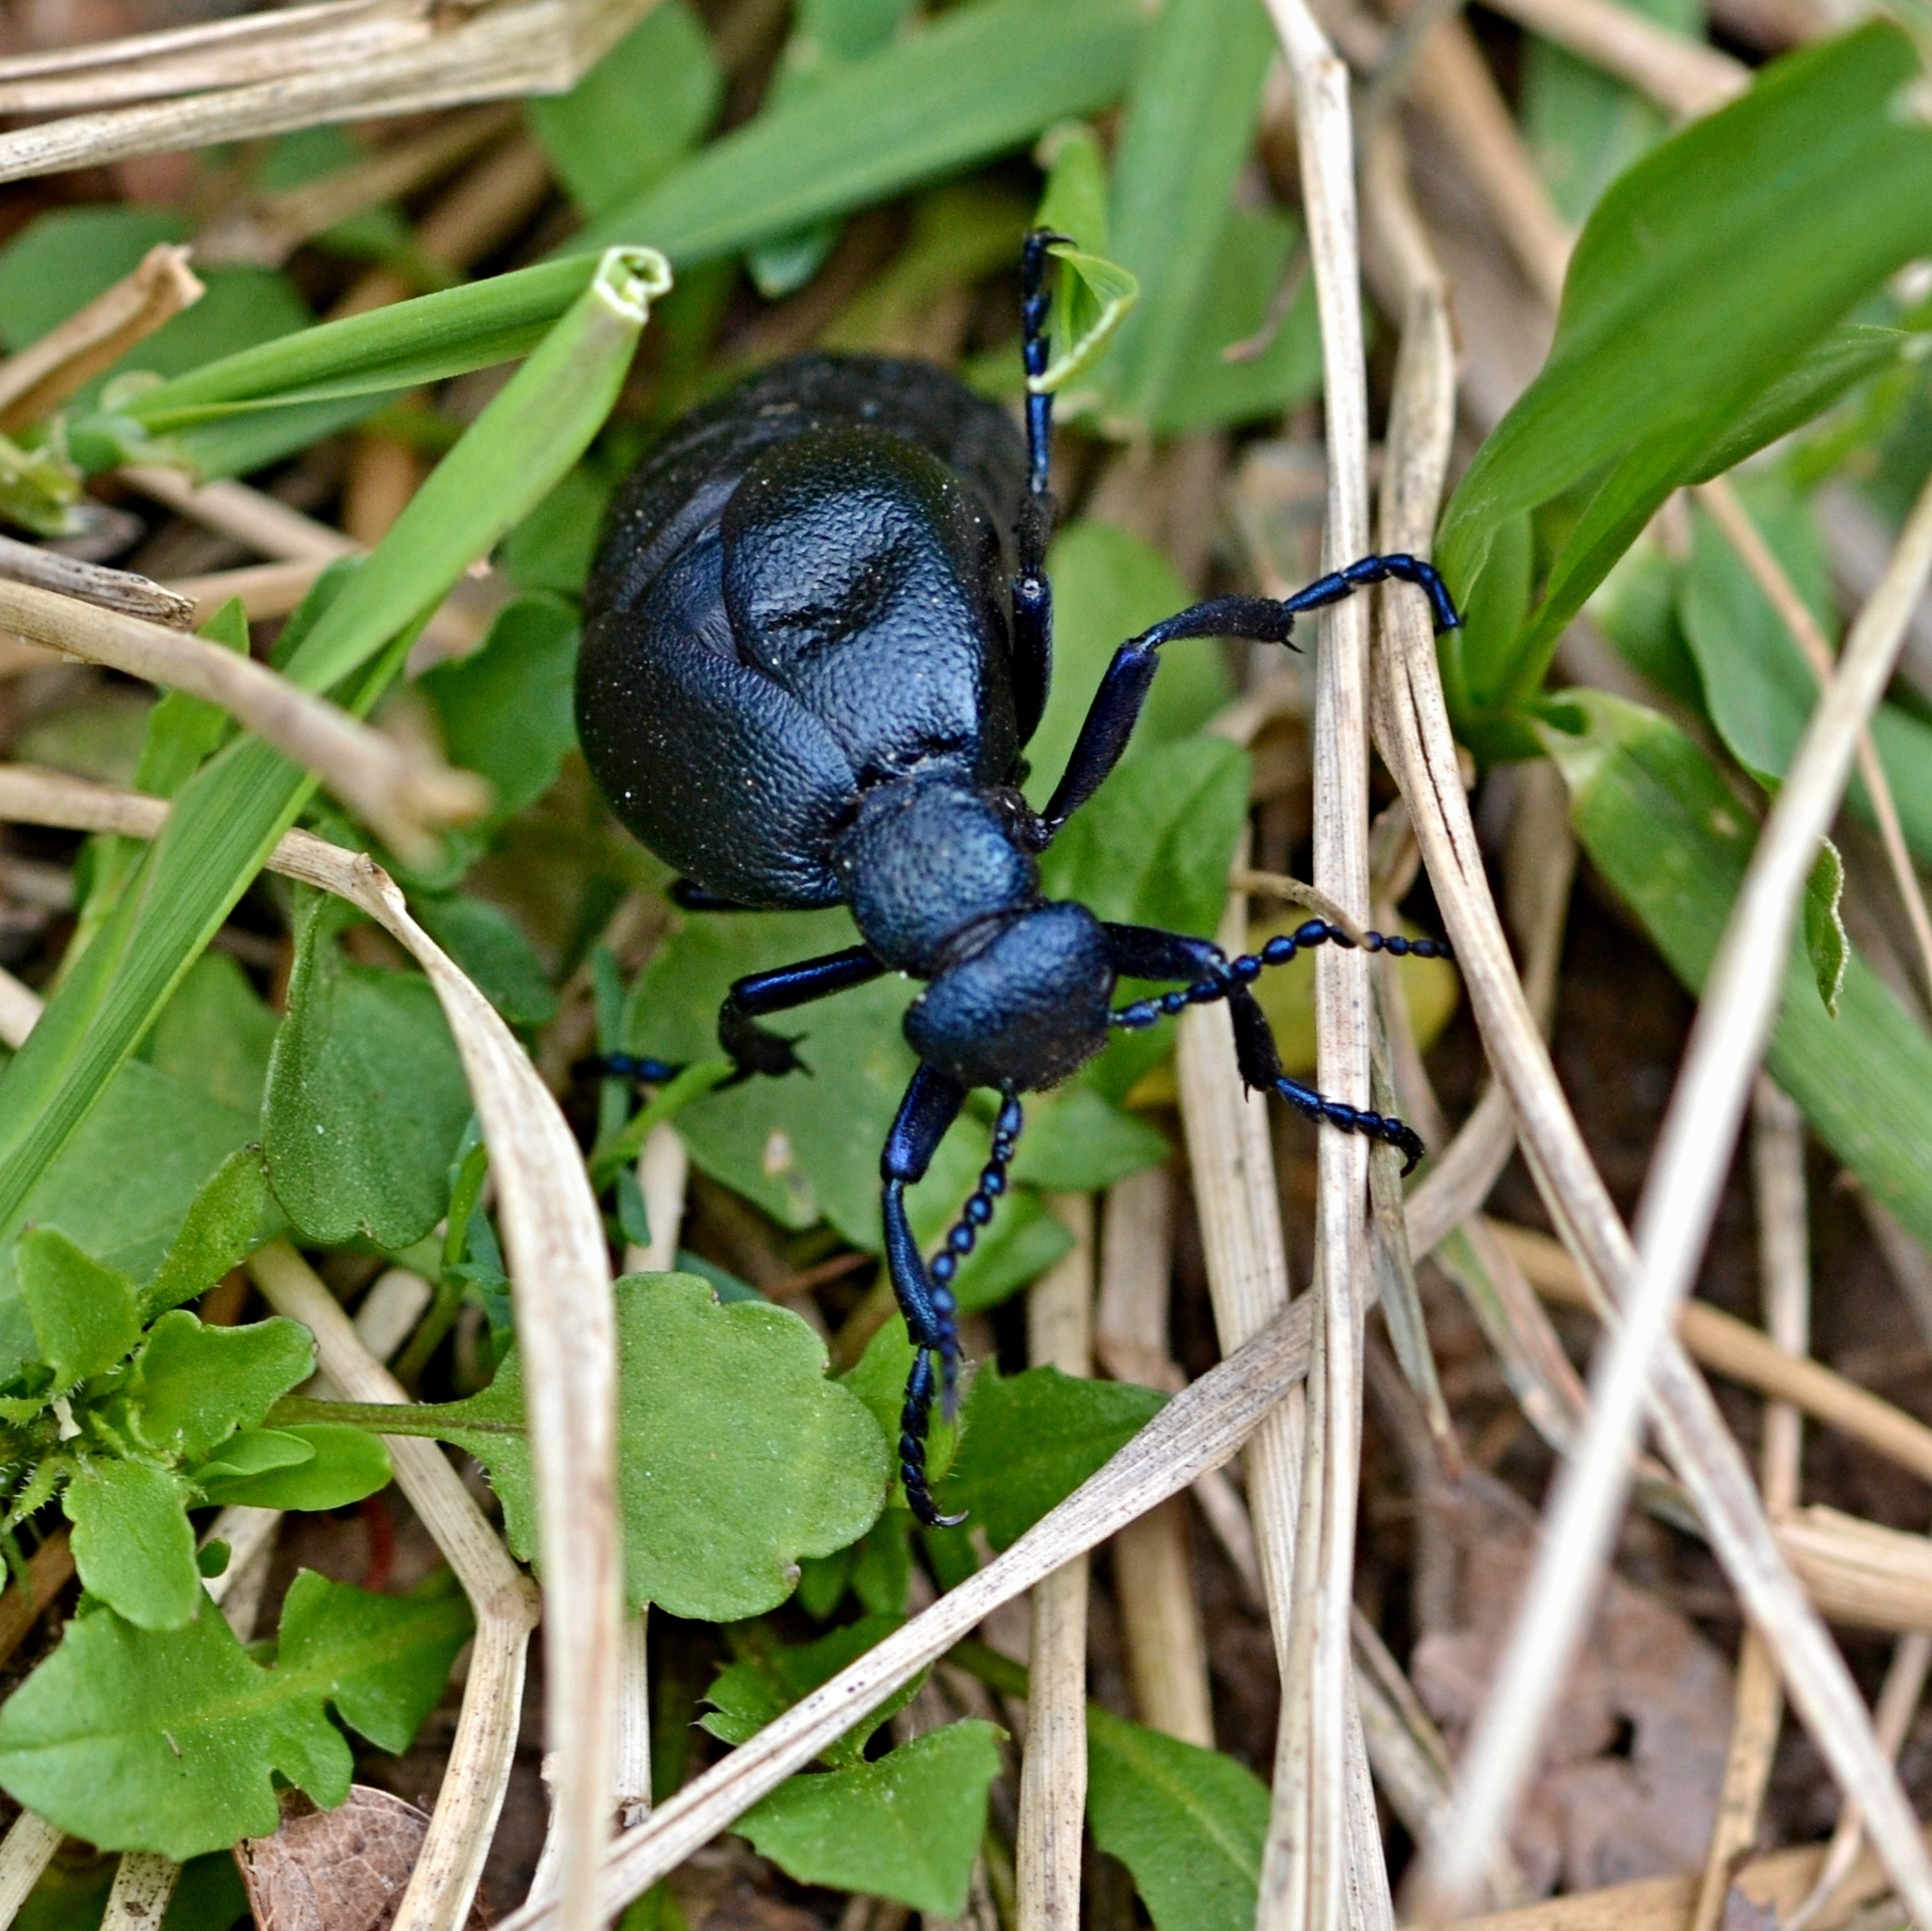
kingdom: Animalia
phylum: Arthropoda
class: Insecta
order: Coleoptera
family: Meloidae
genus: Meloe
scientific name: Meloe proscarabaeus
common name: Black oil-beetle
